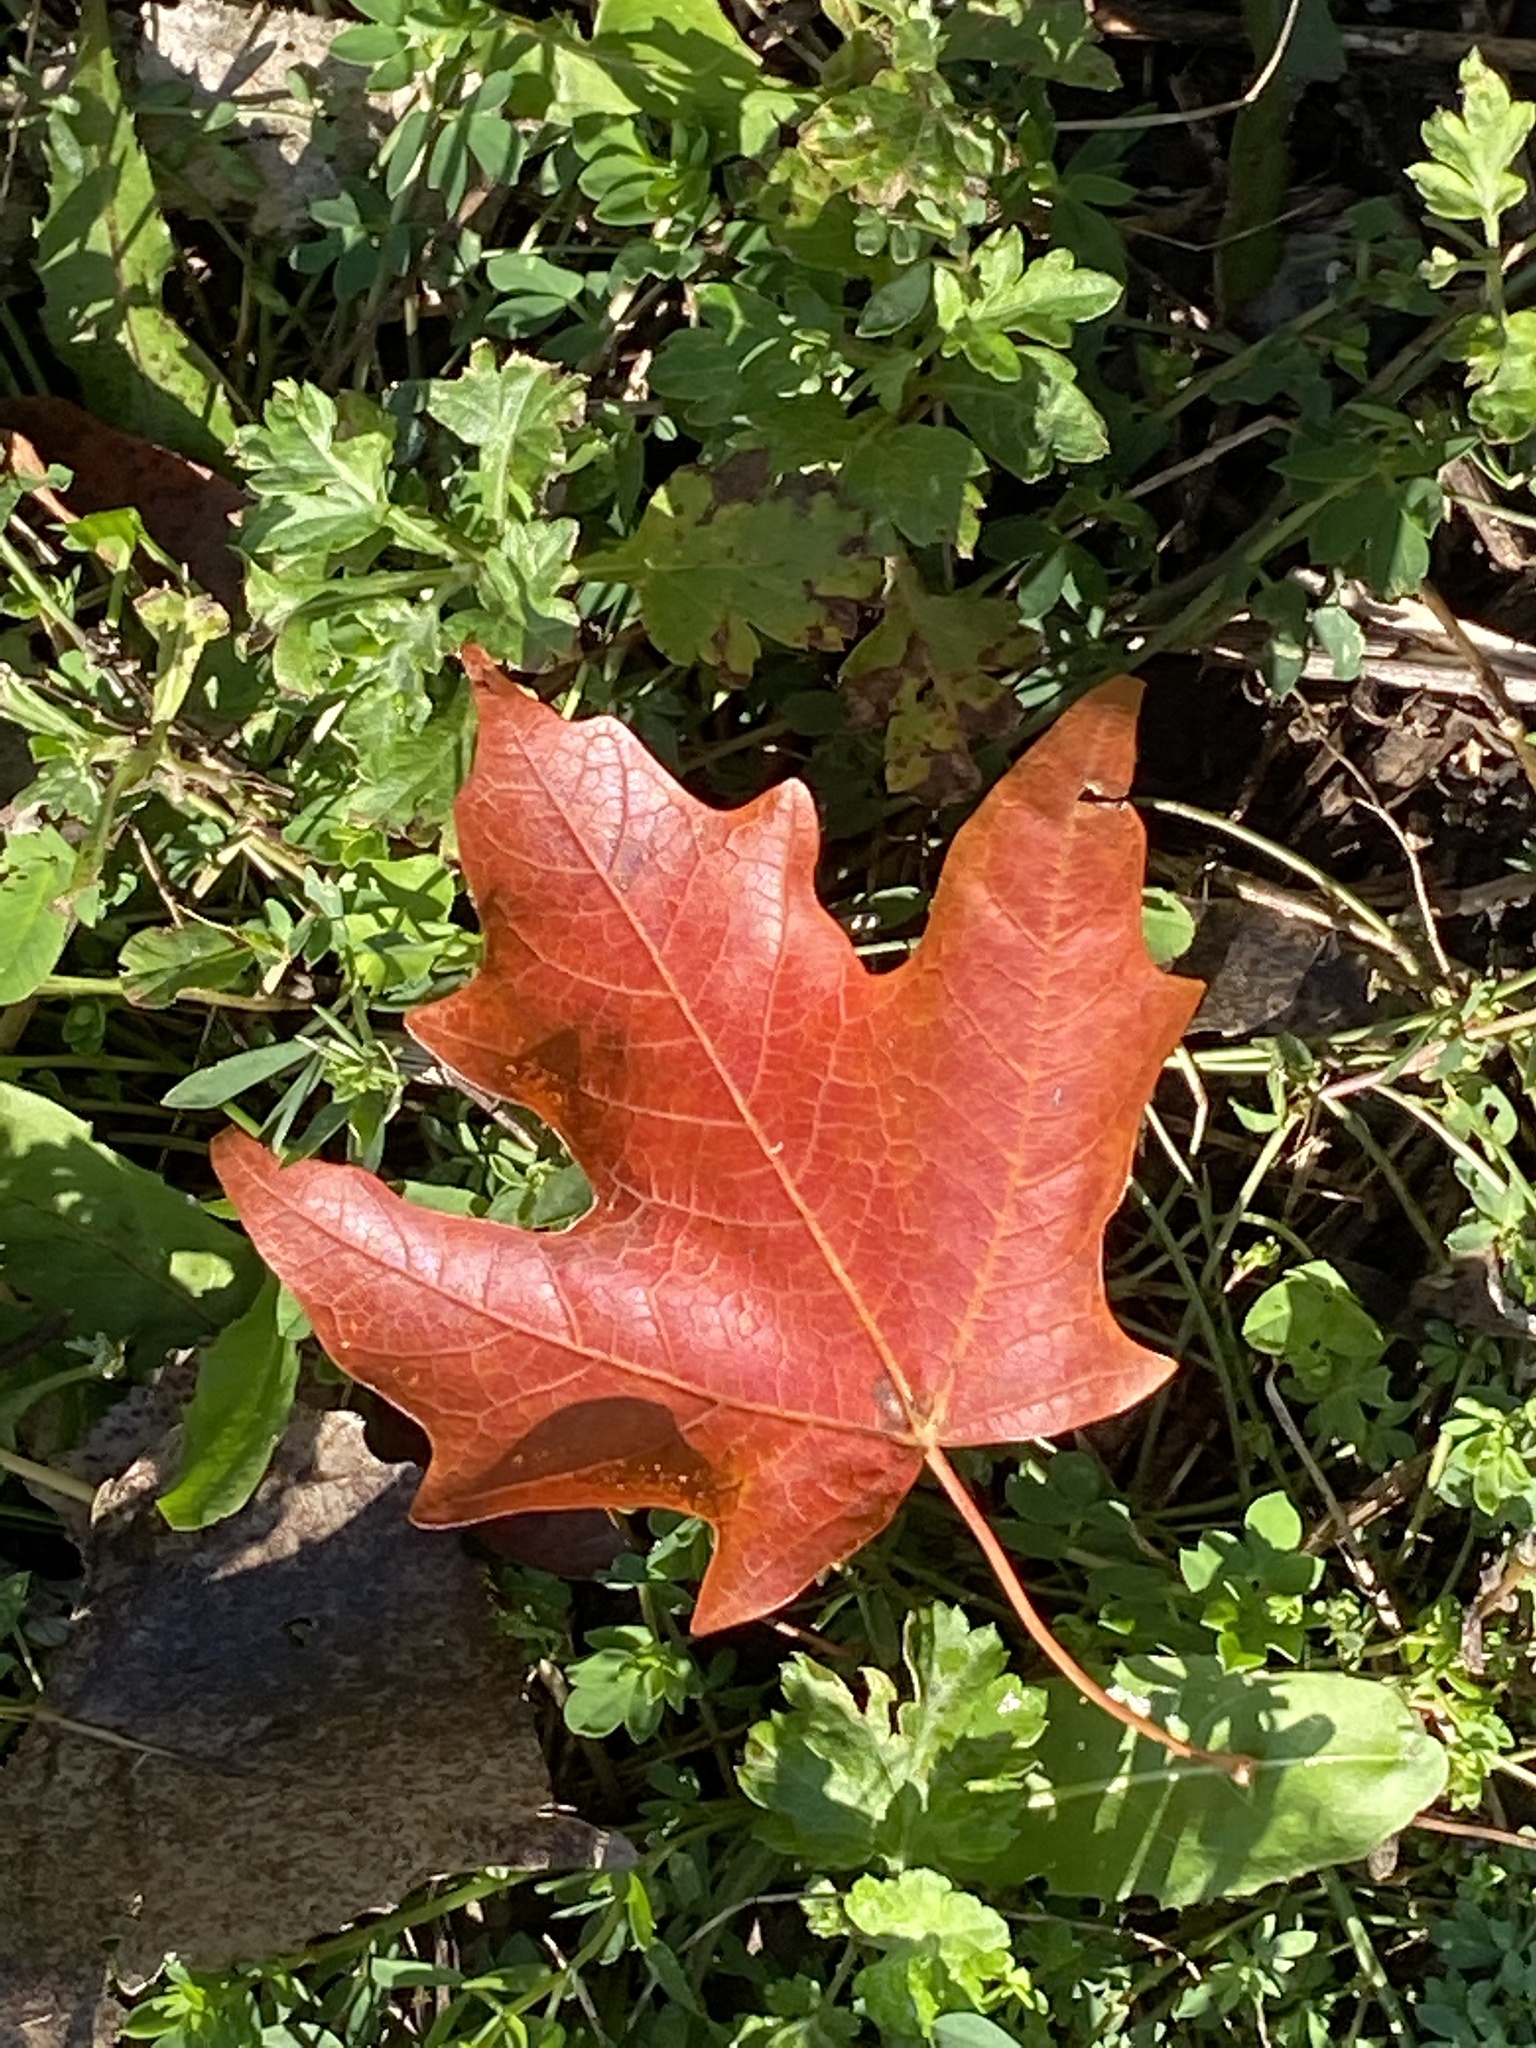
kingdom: Plantae
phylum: Tracheophyta
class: Magnoliopsida
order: Sapindales
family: Sapindaceae
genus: Acer
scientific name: Acer saccharum
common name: Sugar maple
